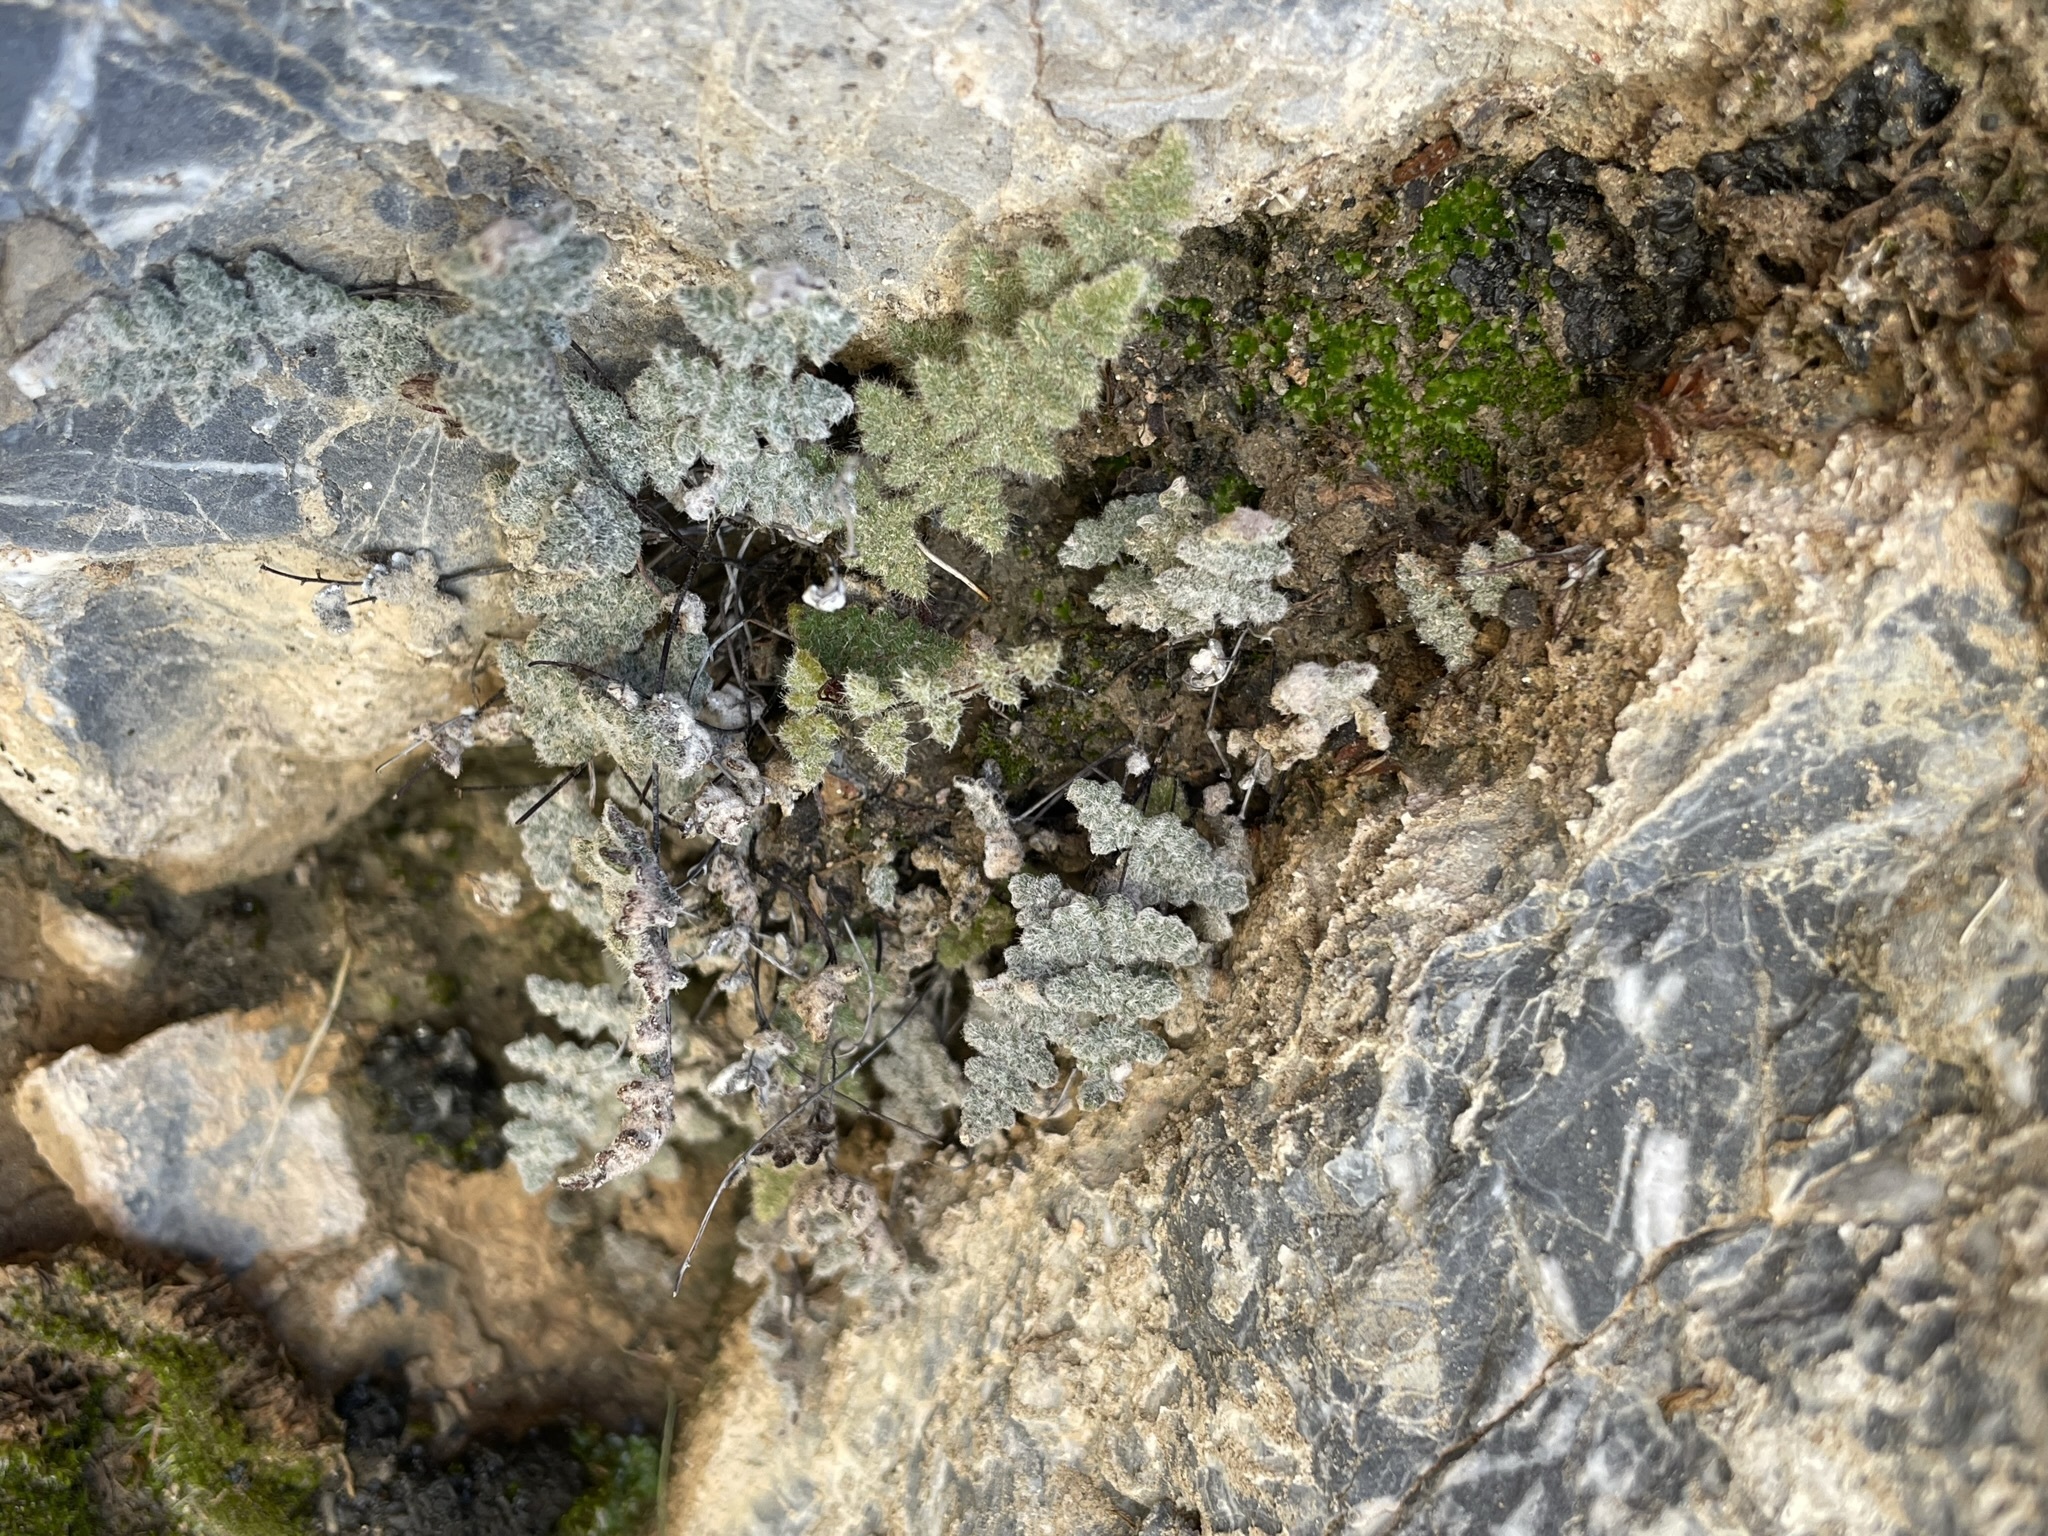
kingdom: Plantae
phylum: Tracheophyta
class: Polypodiopsida
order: Polypodiales
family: Pteridaceae
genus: Myriopteris
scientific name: Myriopteris parryi
